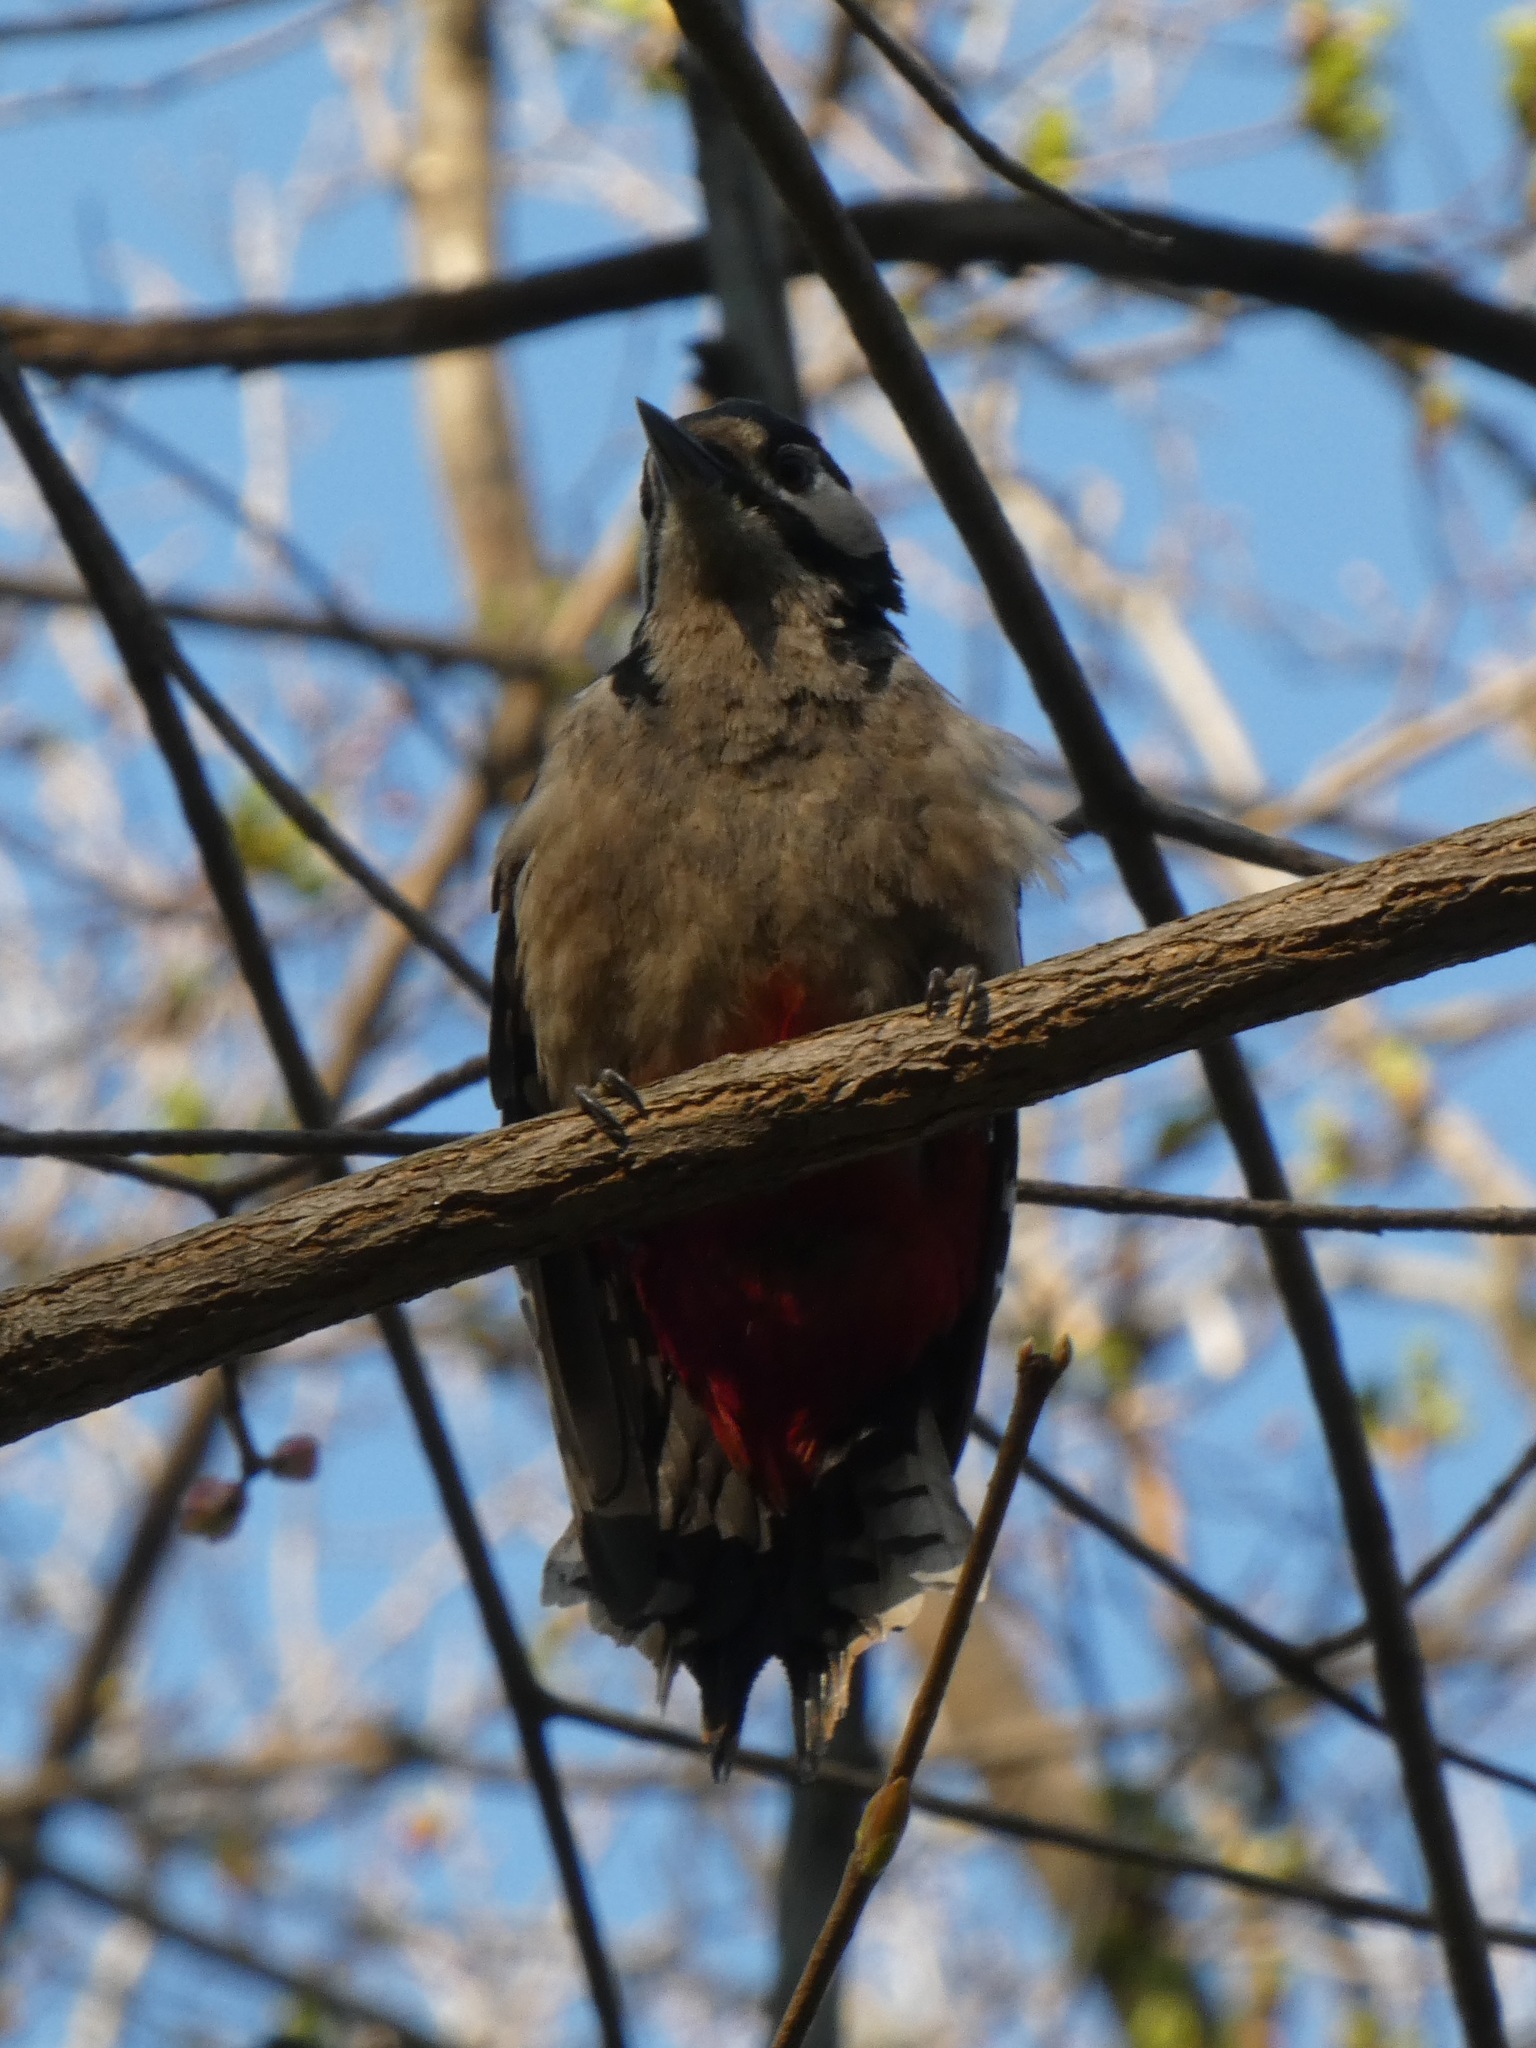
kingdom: Animalia
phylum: Chordata
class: Aves
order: Piciformes
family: Picidae
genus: Dendrocopos
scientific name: Dendrocopos major
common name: Great spotted woodpecker
